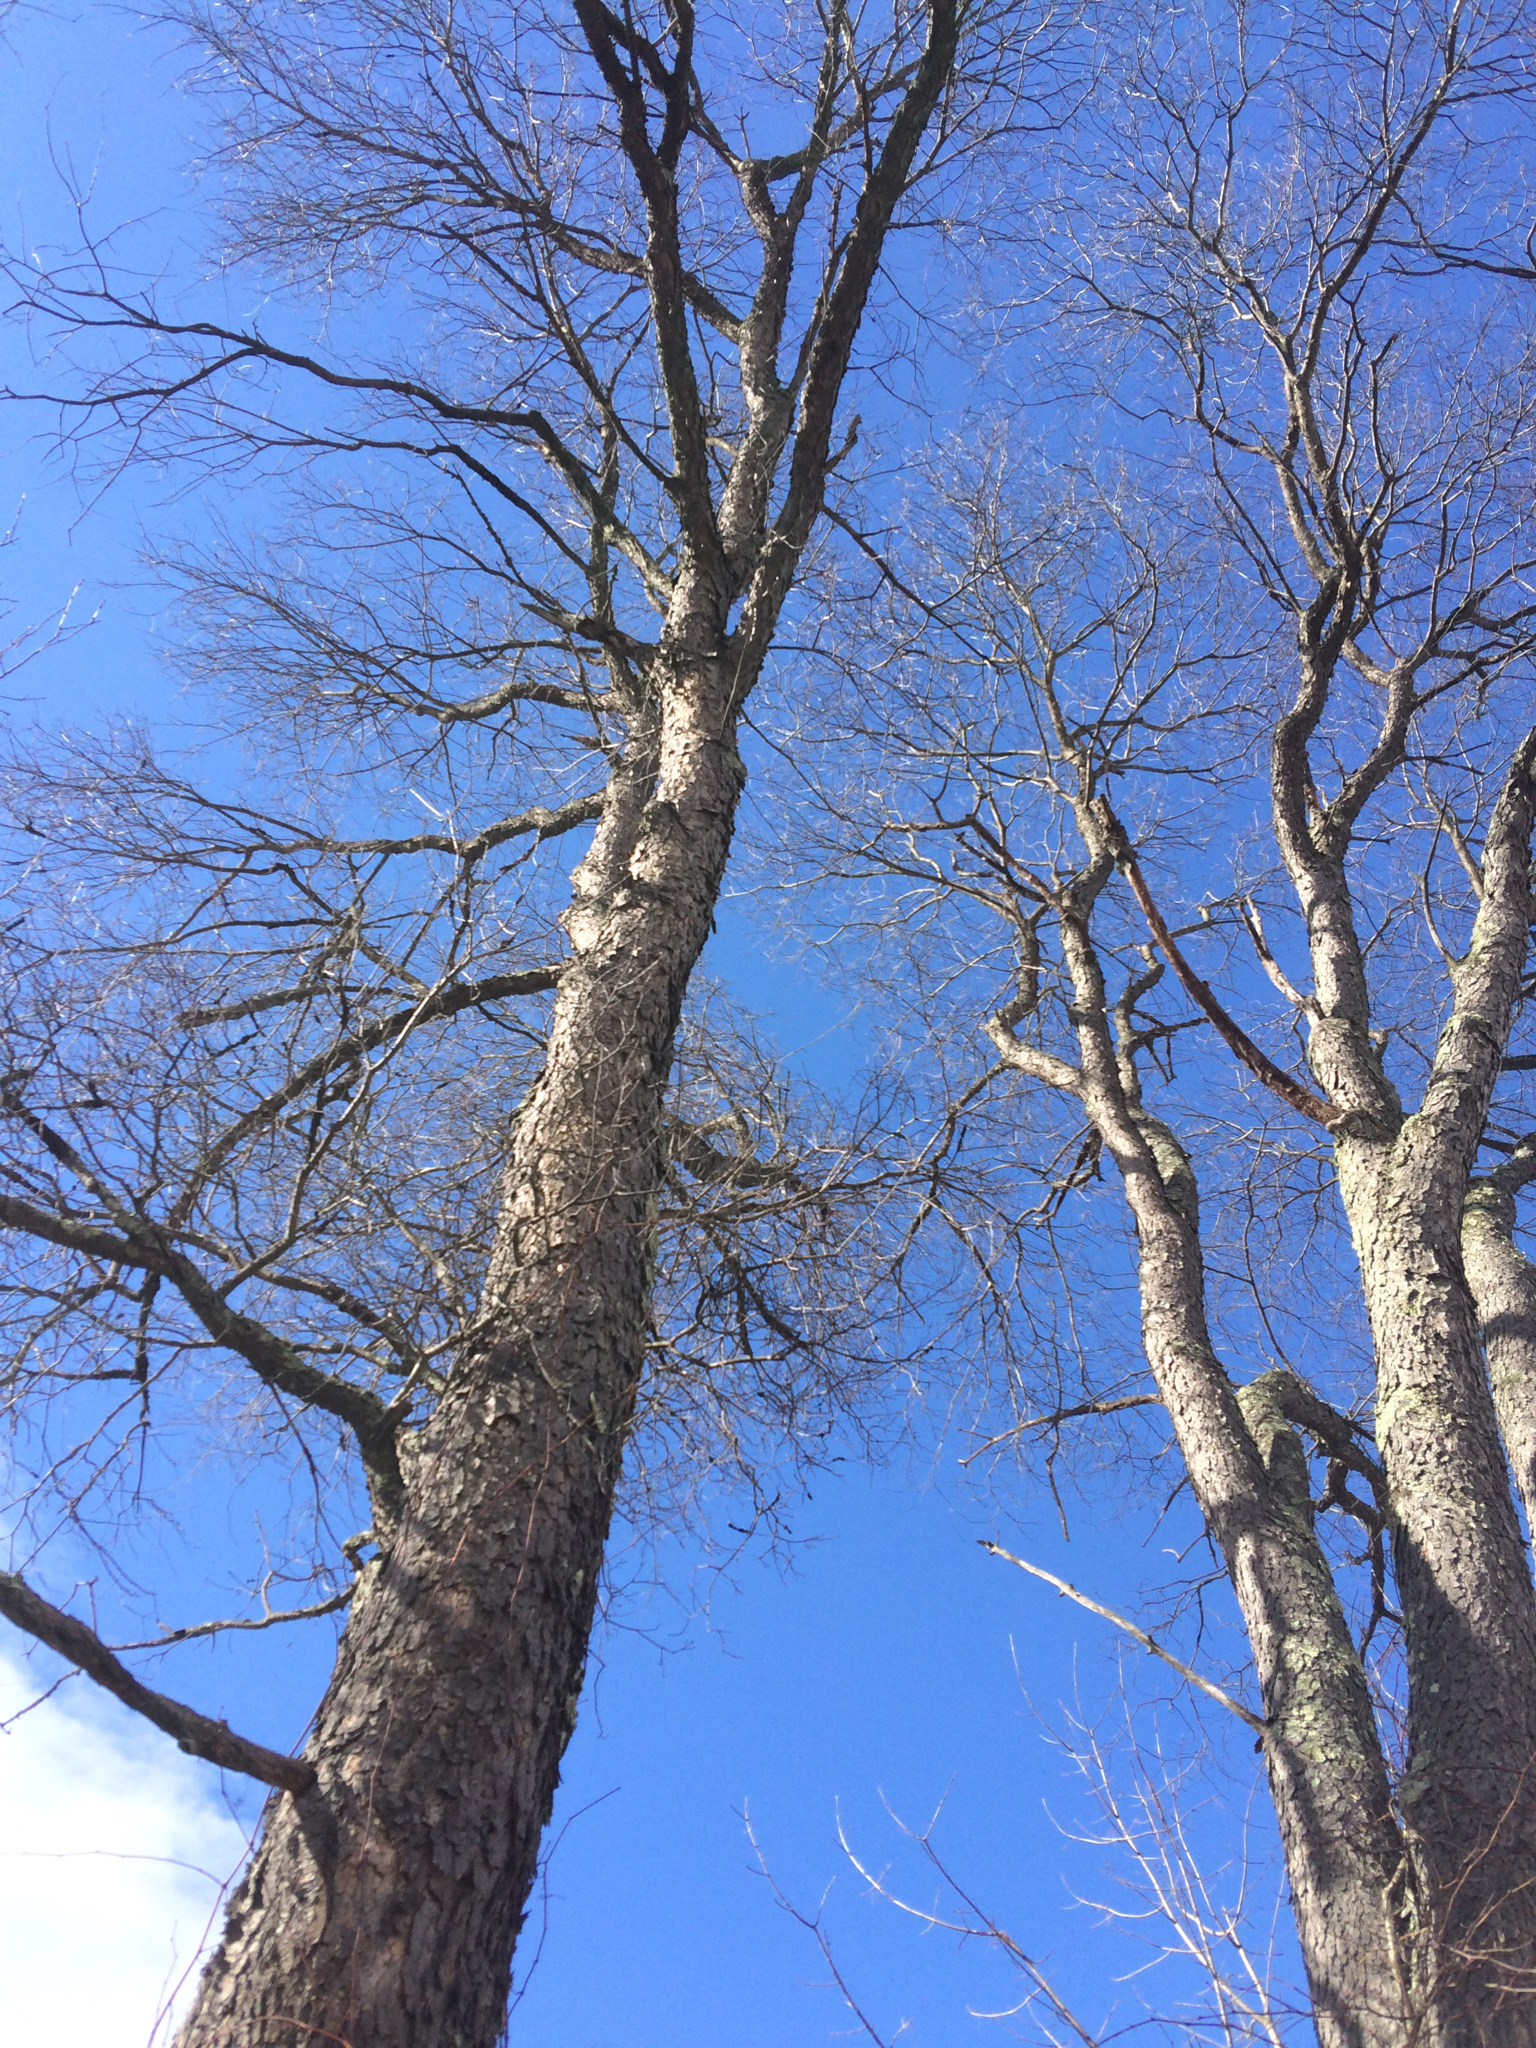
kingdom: Plantae
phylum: Tracheophyta
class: Magnoliopsida
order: Rosales
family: Rosaceae
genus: Prunus
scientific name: Prunus serotina
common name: Black cherry
